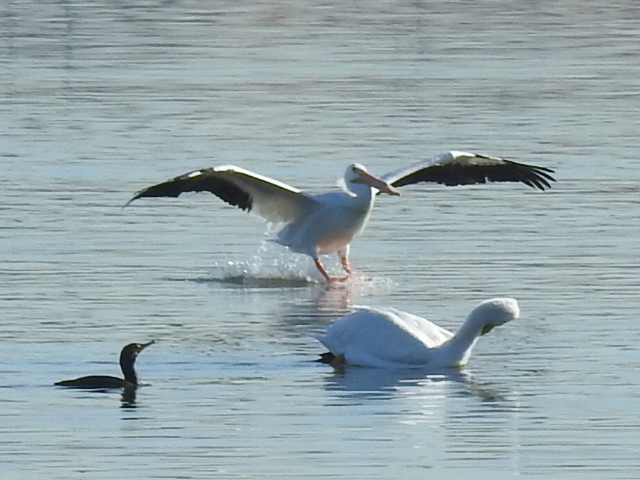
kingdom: Animalia
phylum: Chordata
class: Aves
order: Pelecaniformes
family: Pelecanidae
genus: Pelecanus
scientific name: Pelecanus erythrorhynchos
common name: American white pelican
